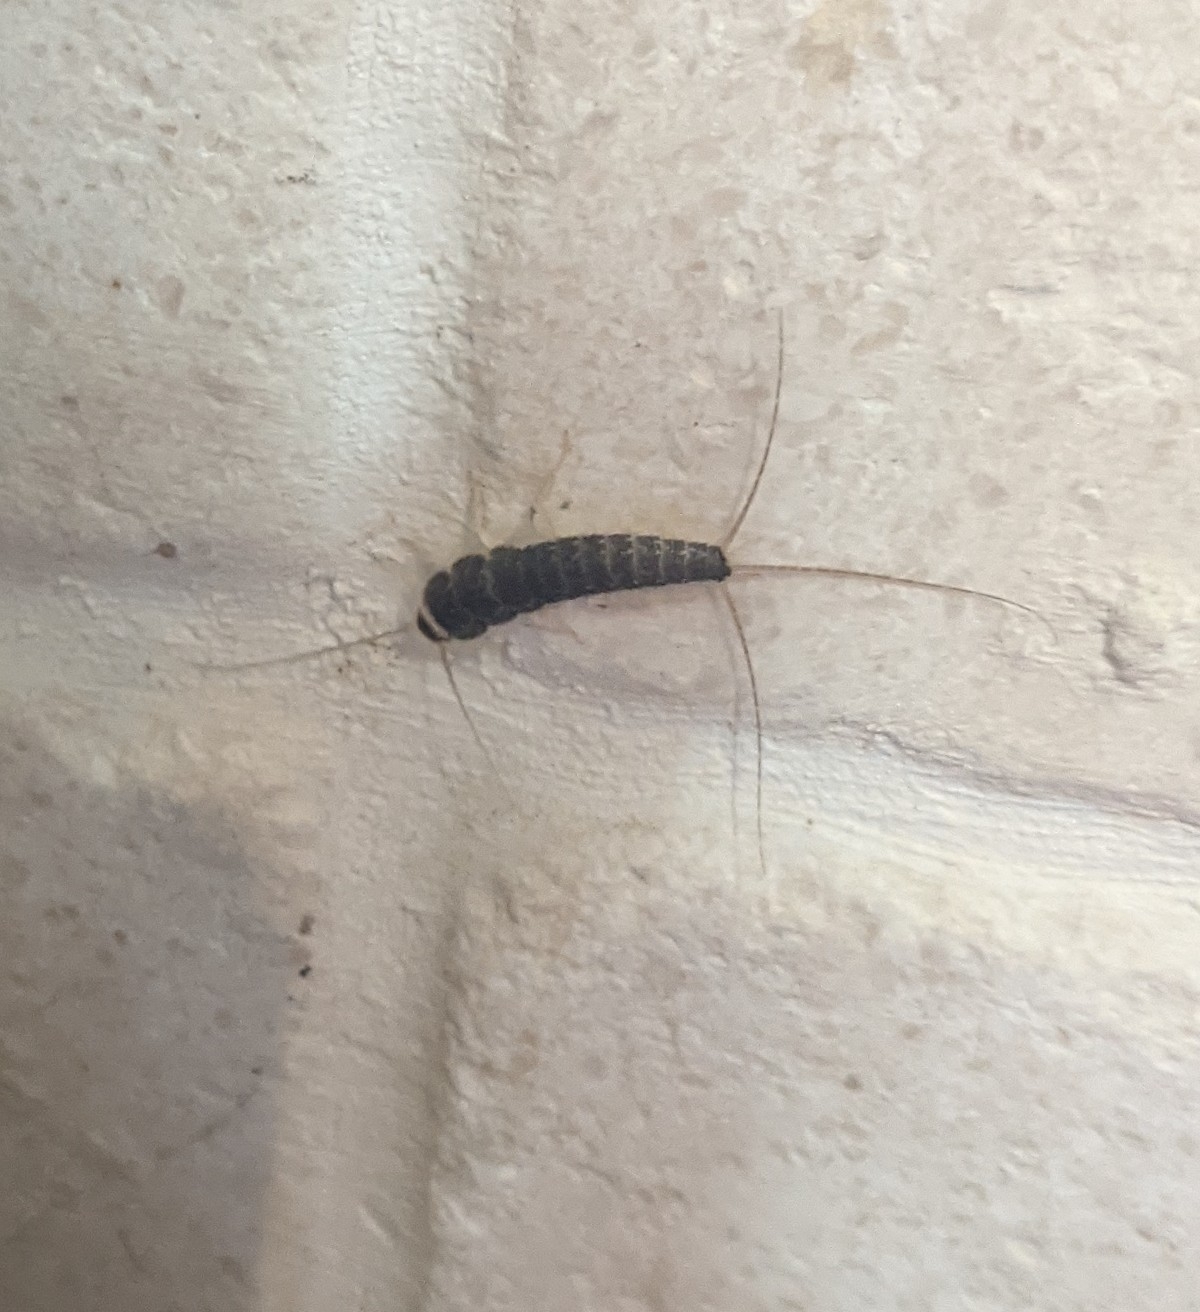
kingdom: Animalia
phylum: Arthropoda
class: Insecta
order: Zygentoma
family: Lepismatidae
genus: Ctenolepisma
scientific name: Ctenolepisma longicaudatum
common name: Silverfish
